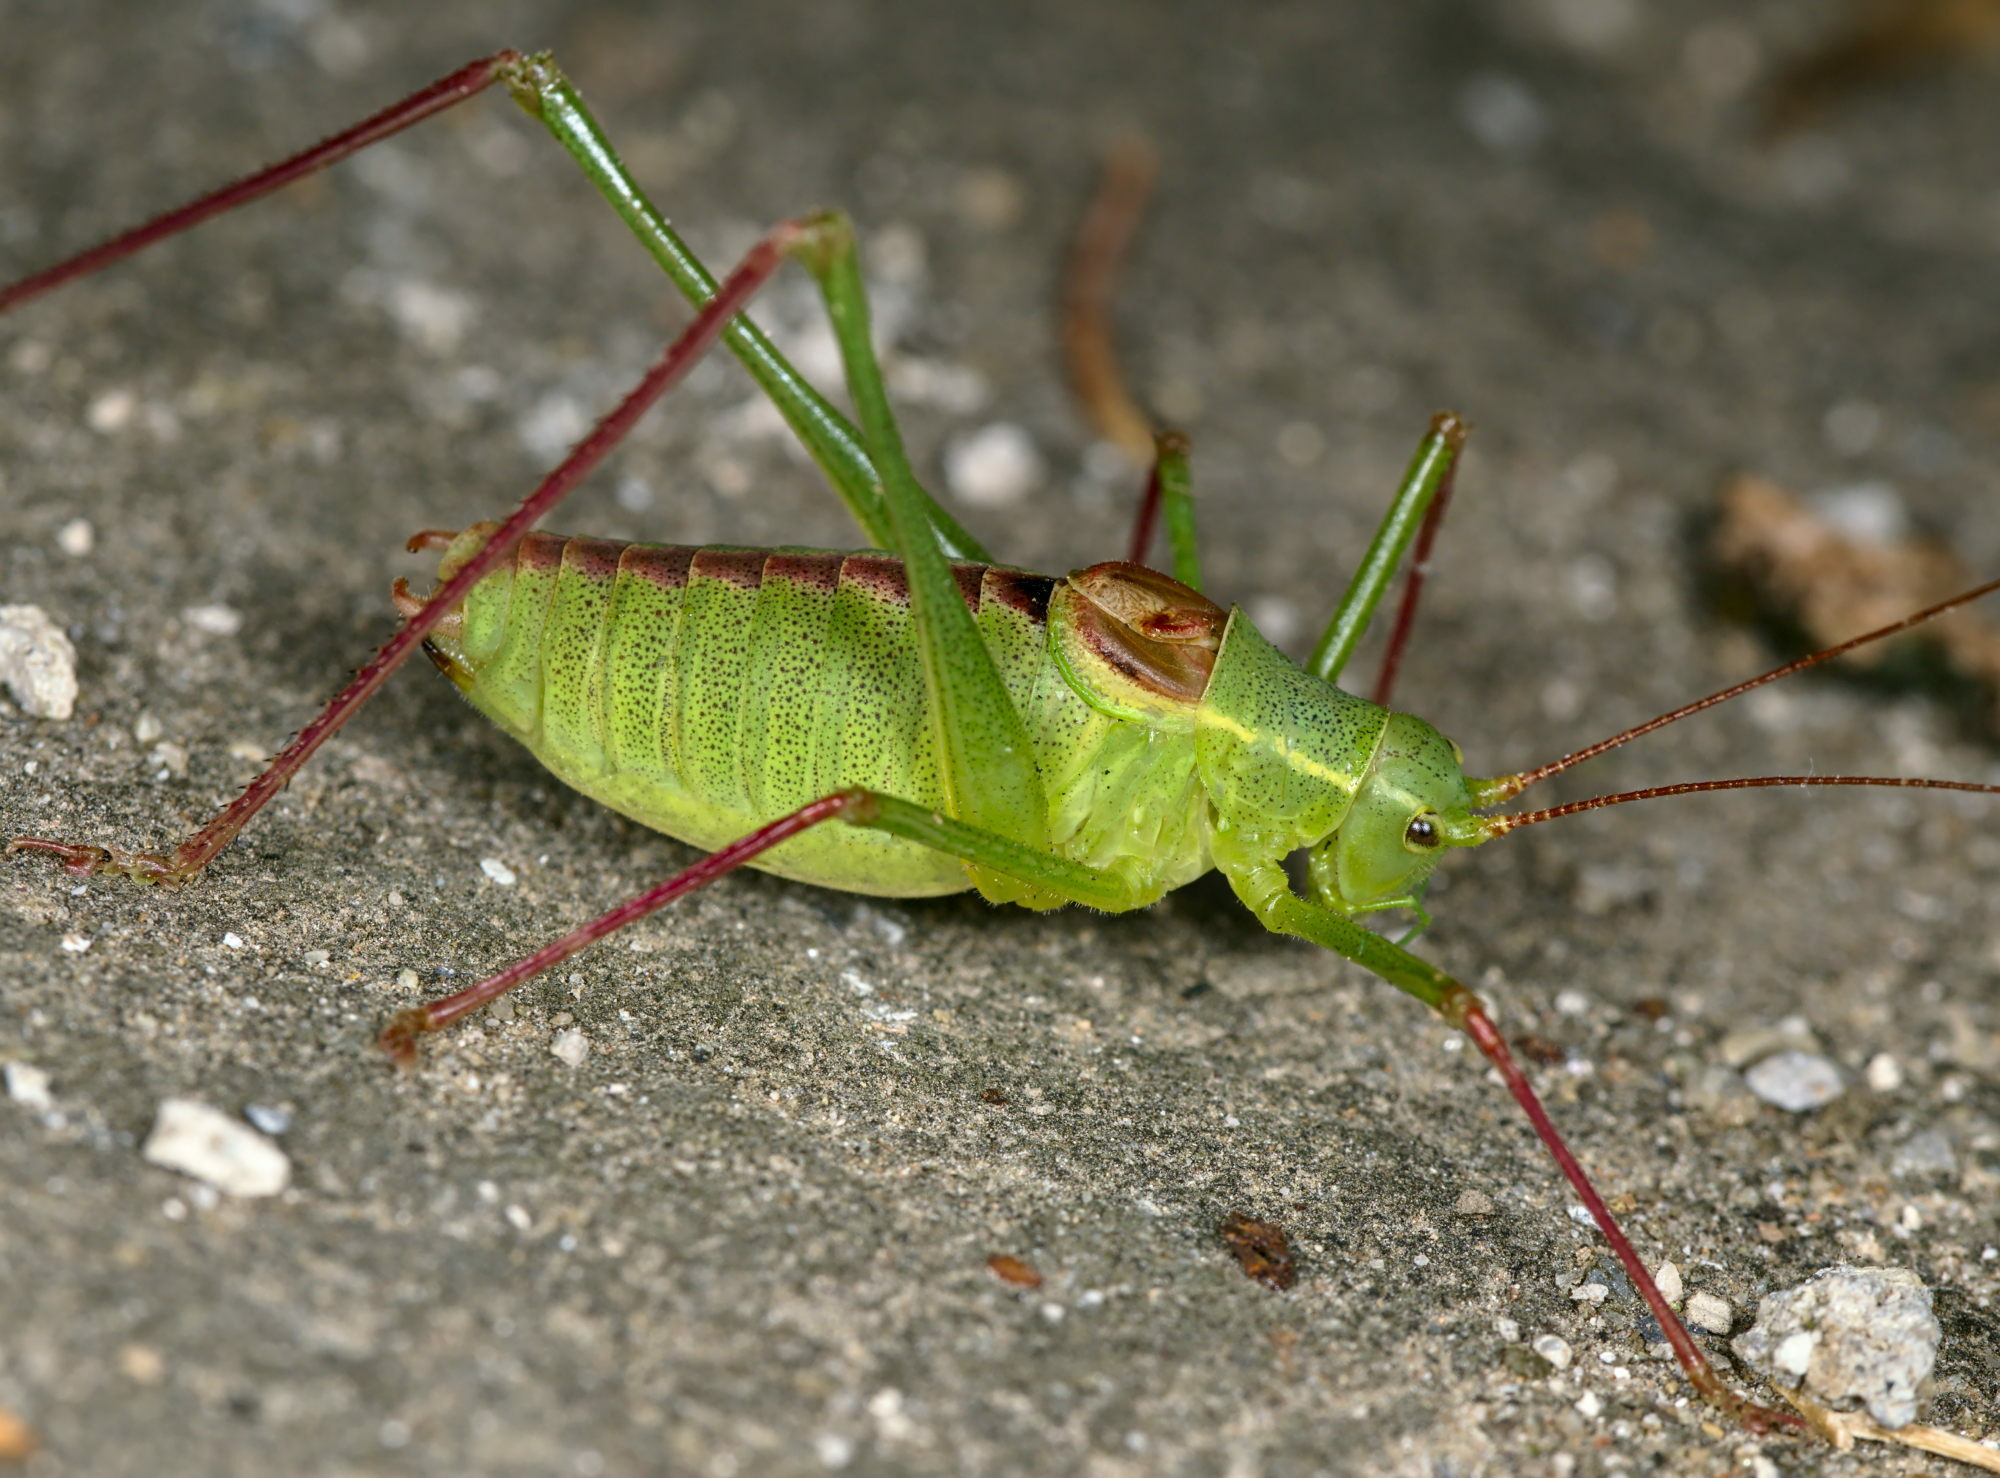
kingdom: Animalia
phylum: Arthropoda
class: Insecta
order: Orthoptera
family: Tettigoniidae
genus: Leptophyes
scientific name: Leptophyes laticauda
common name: Long-tailed speckled bush-cricket
